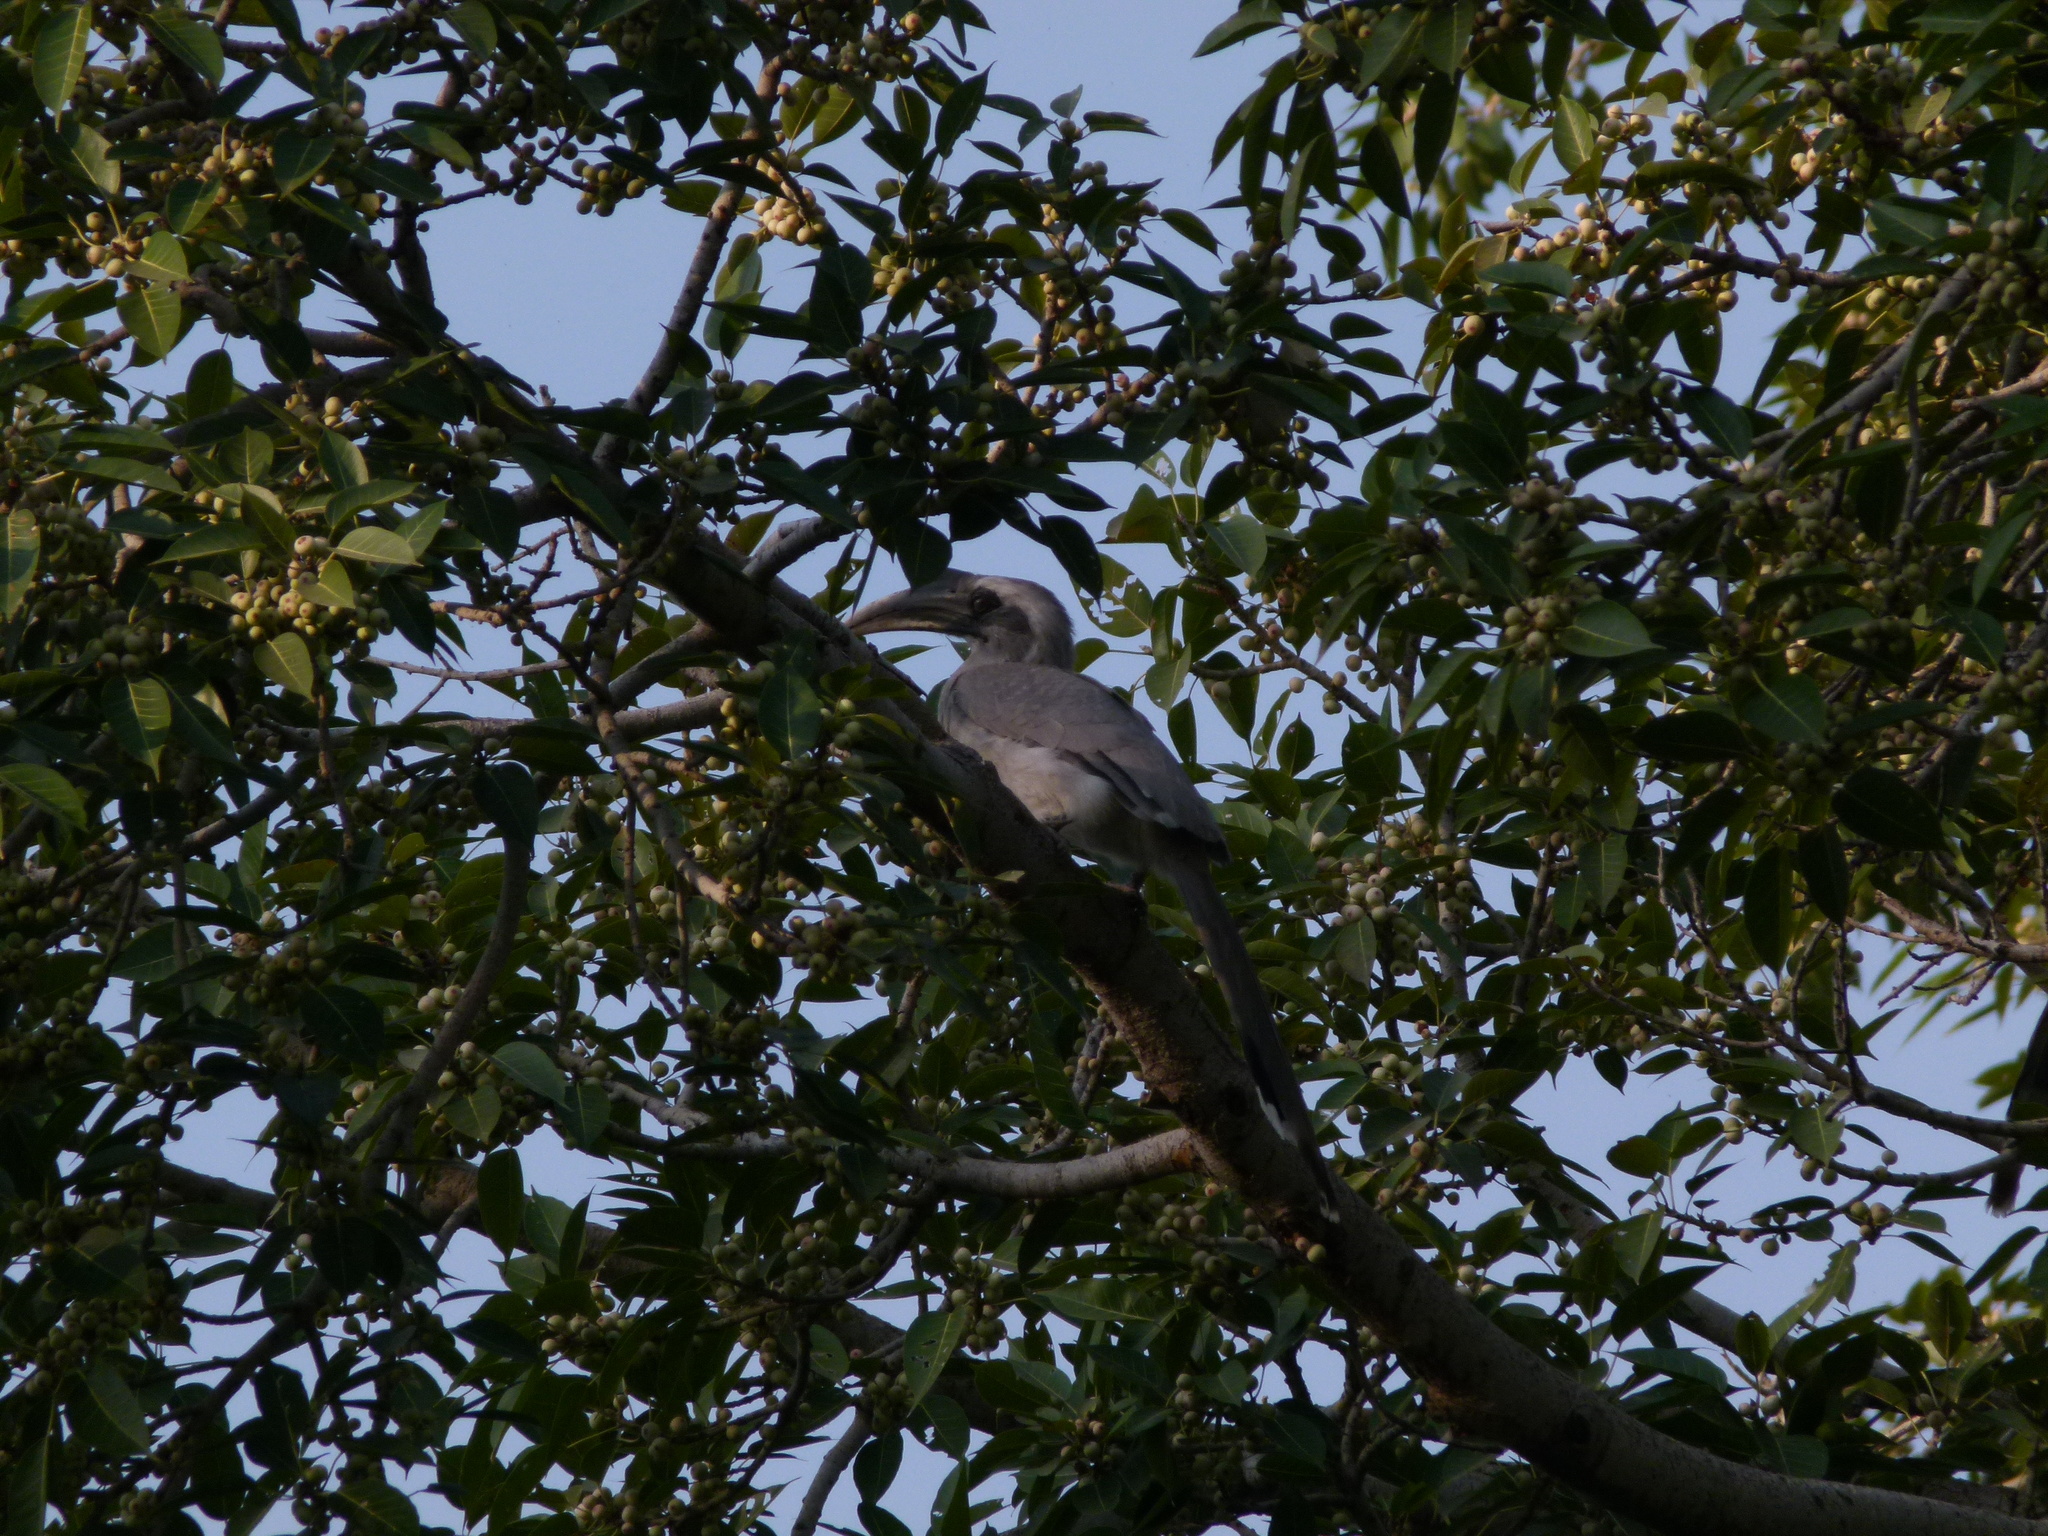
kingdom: Animalia
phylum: Chordata
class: Aves
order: Bucerotiformes
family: Bucerotidae
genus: Ocyceros
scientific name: Ocyceros birostris
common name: Indian grey hornbill
